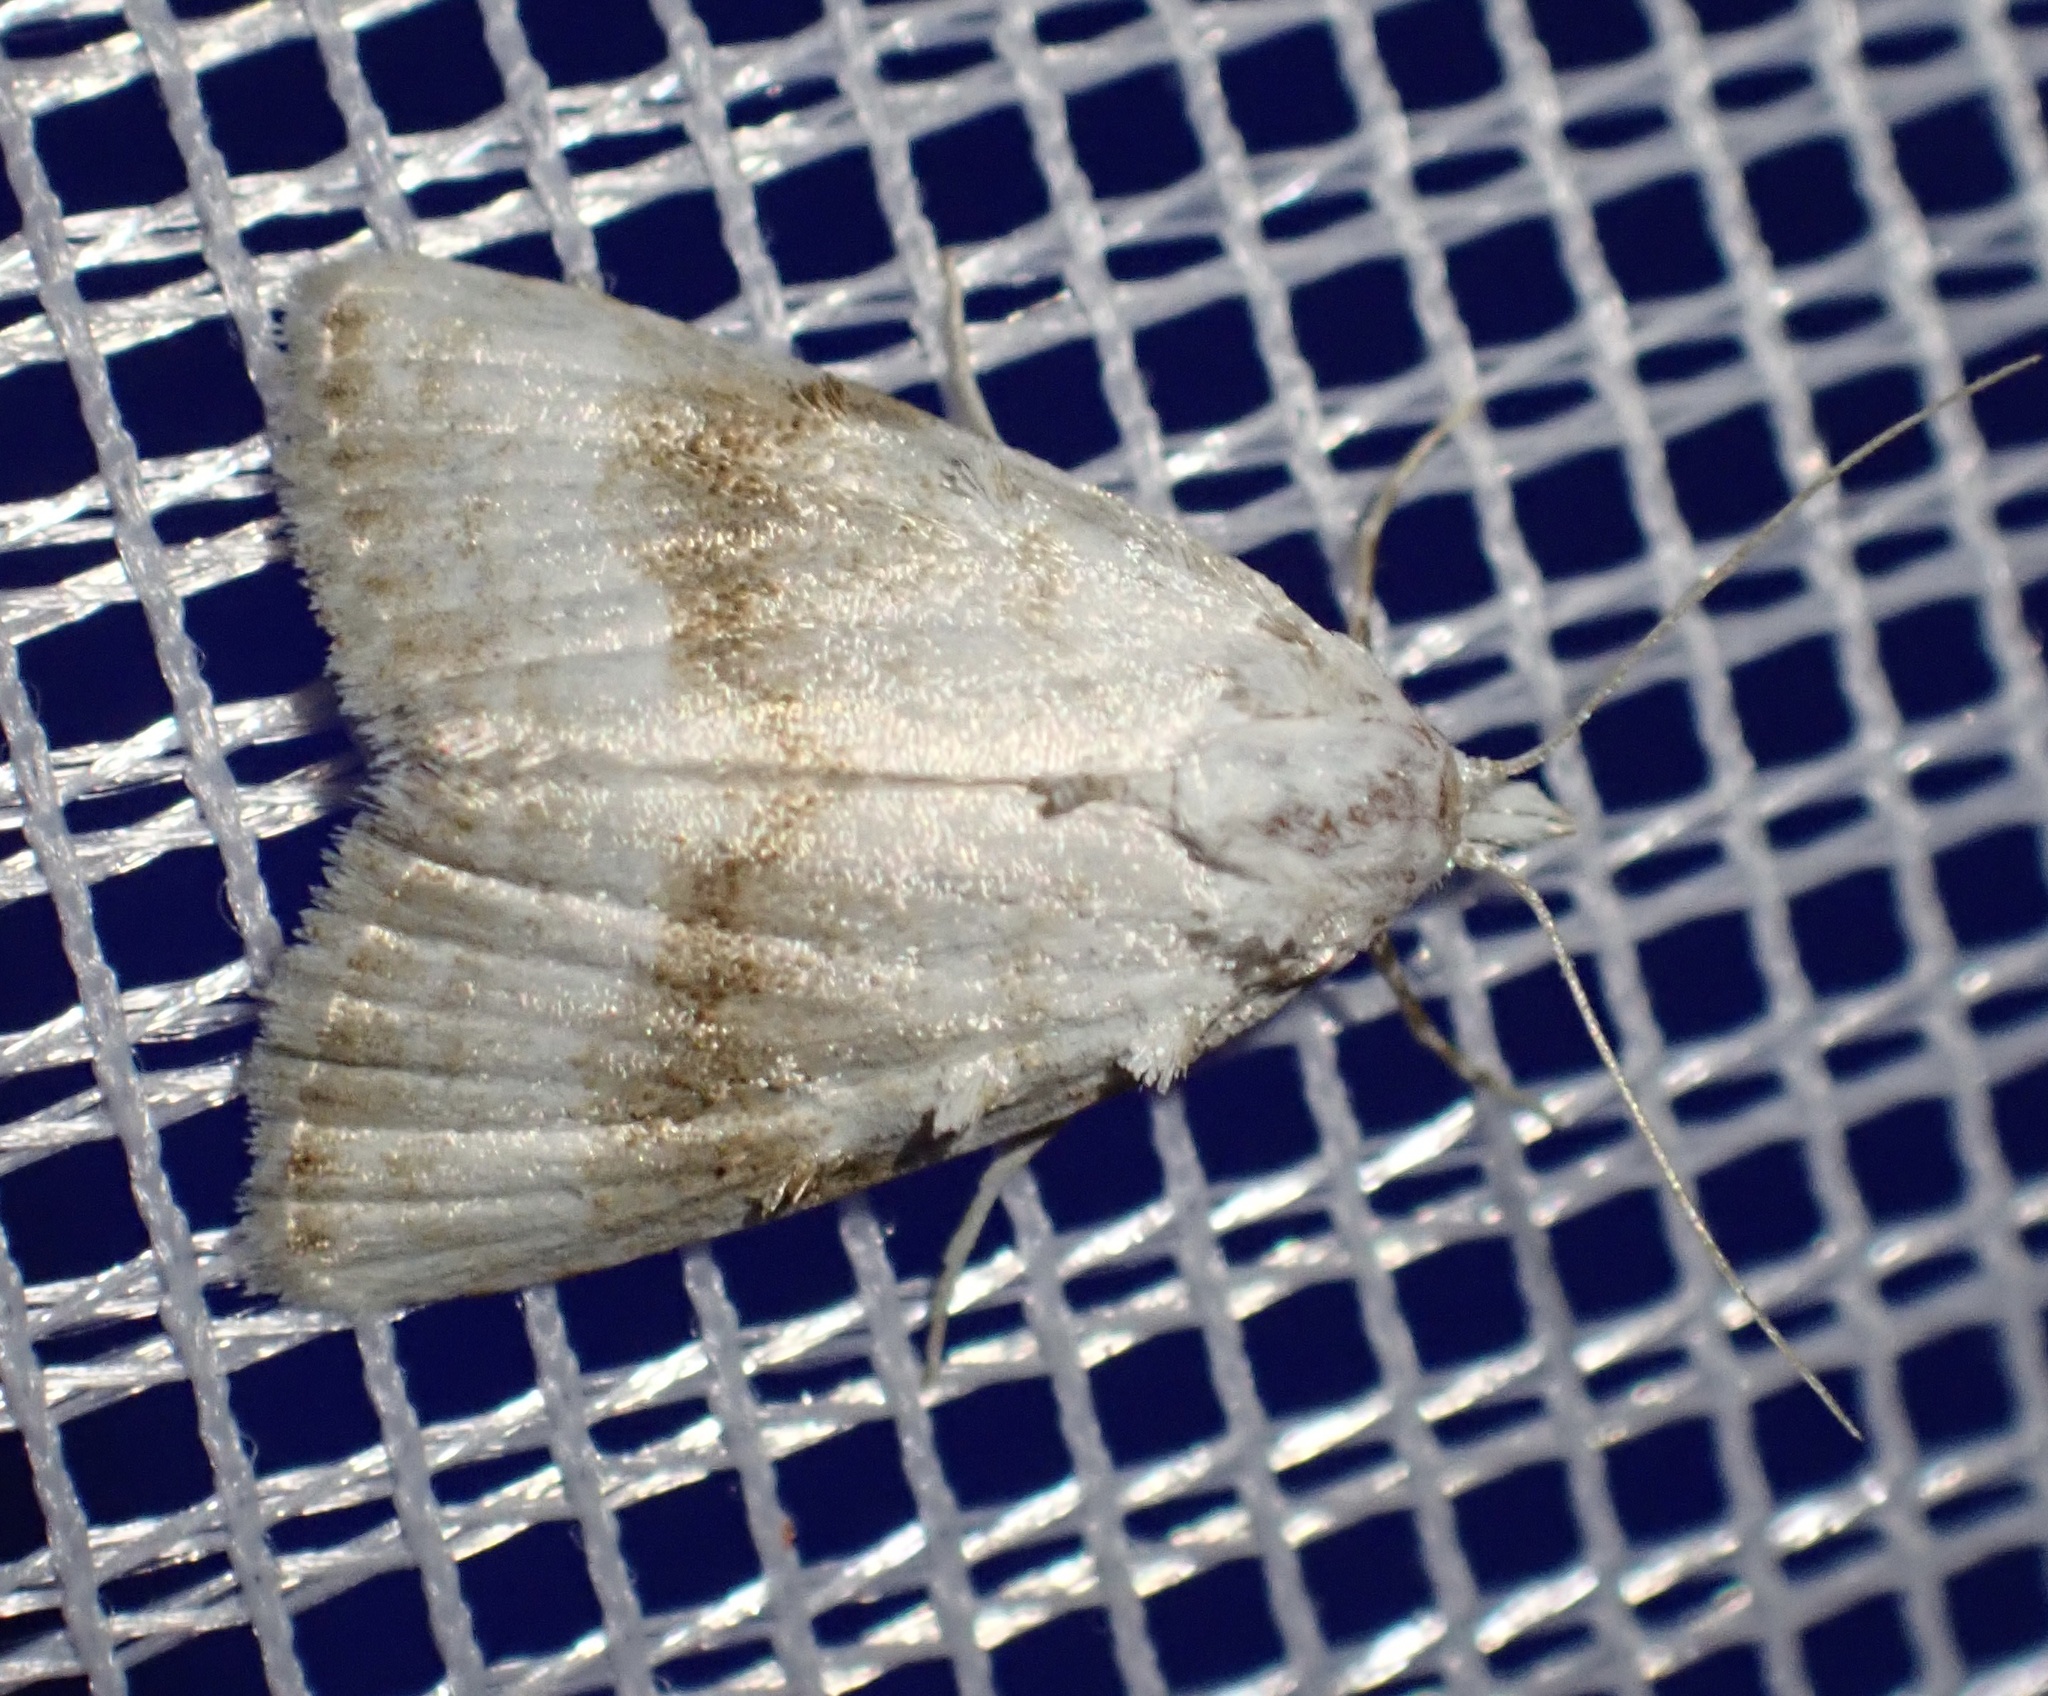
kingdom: Animalia
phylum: Arthropoda
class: Insecta
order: Lepidoptera
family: Nolidae
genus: Meganola
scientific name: Meganola albula
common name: Kent black arches
